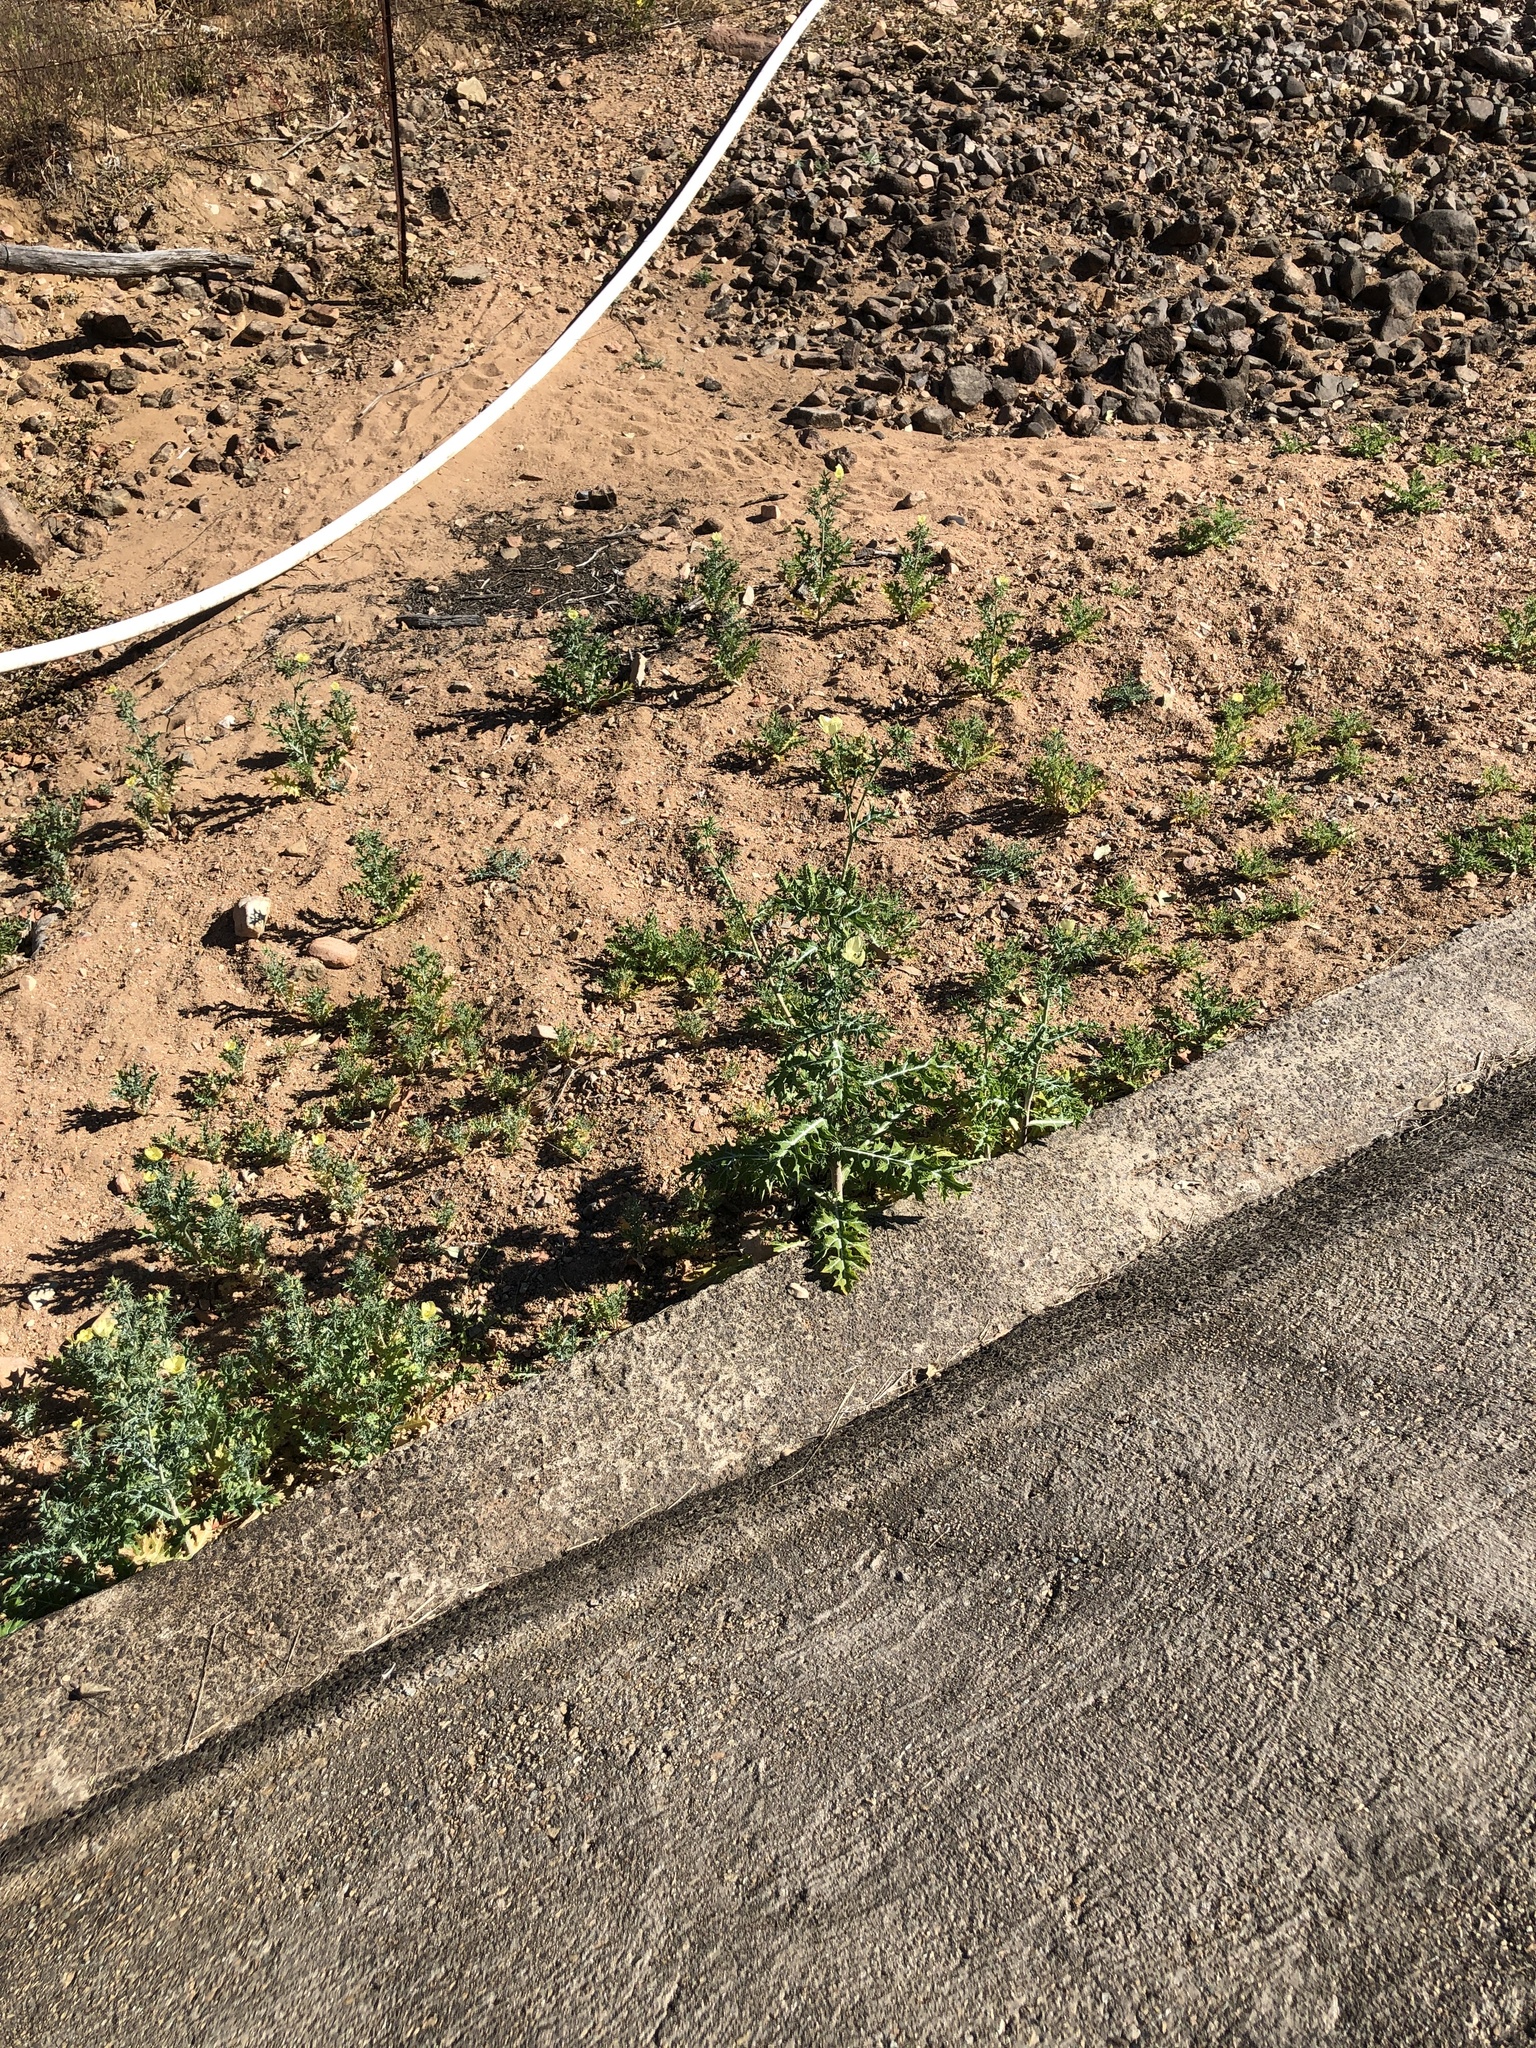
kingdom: Plantae
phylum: Tracheophyta
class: Magnoliopsida
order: Ranunculales
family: Papaveraceae
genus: Argemone
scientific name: Argemone ochroleuca
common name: White-flower mexican-poppy
